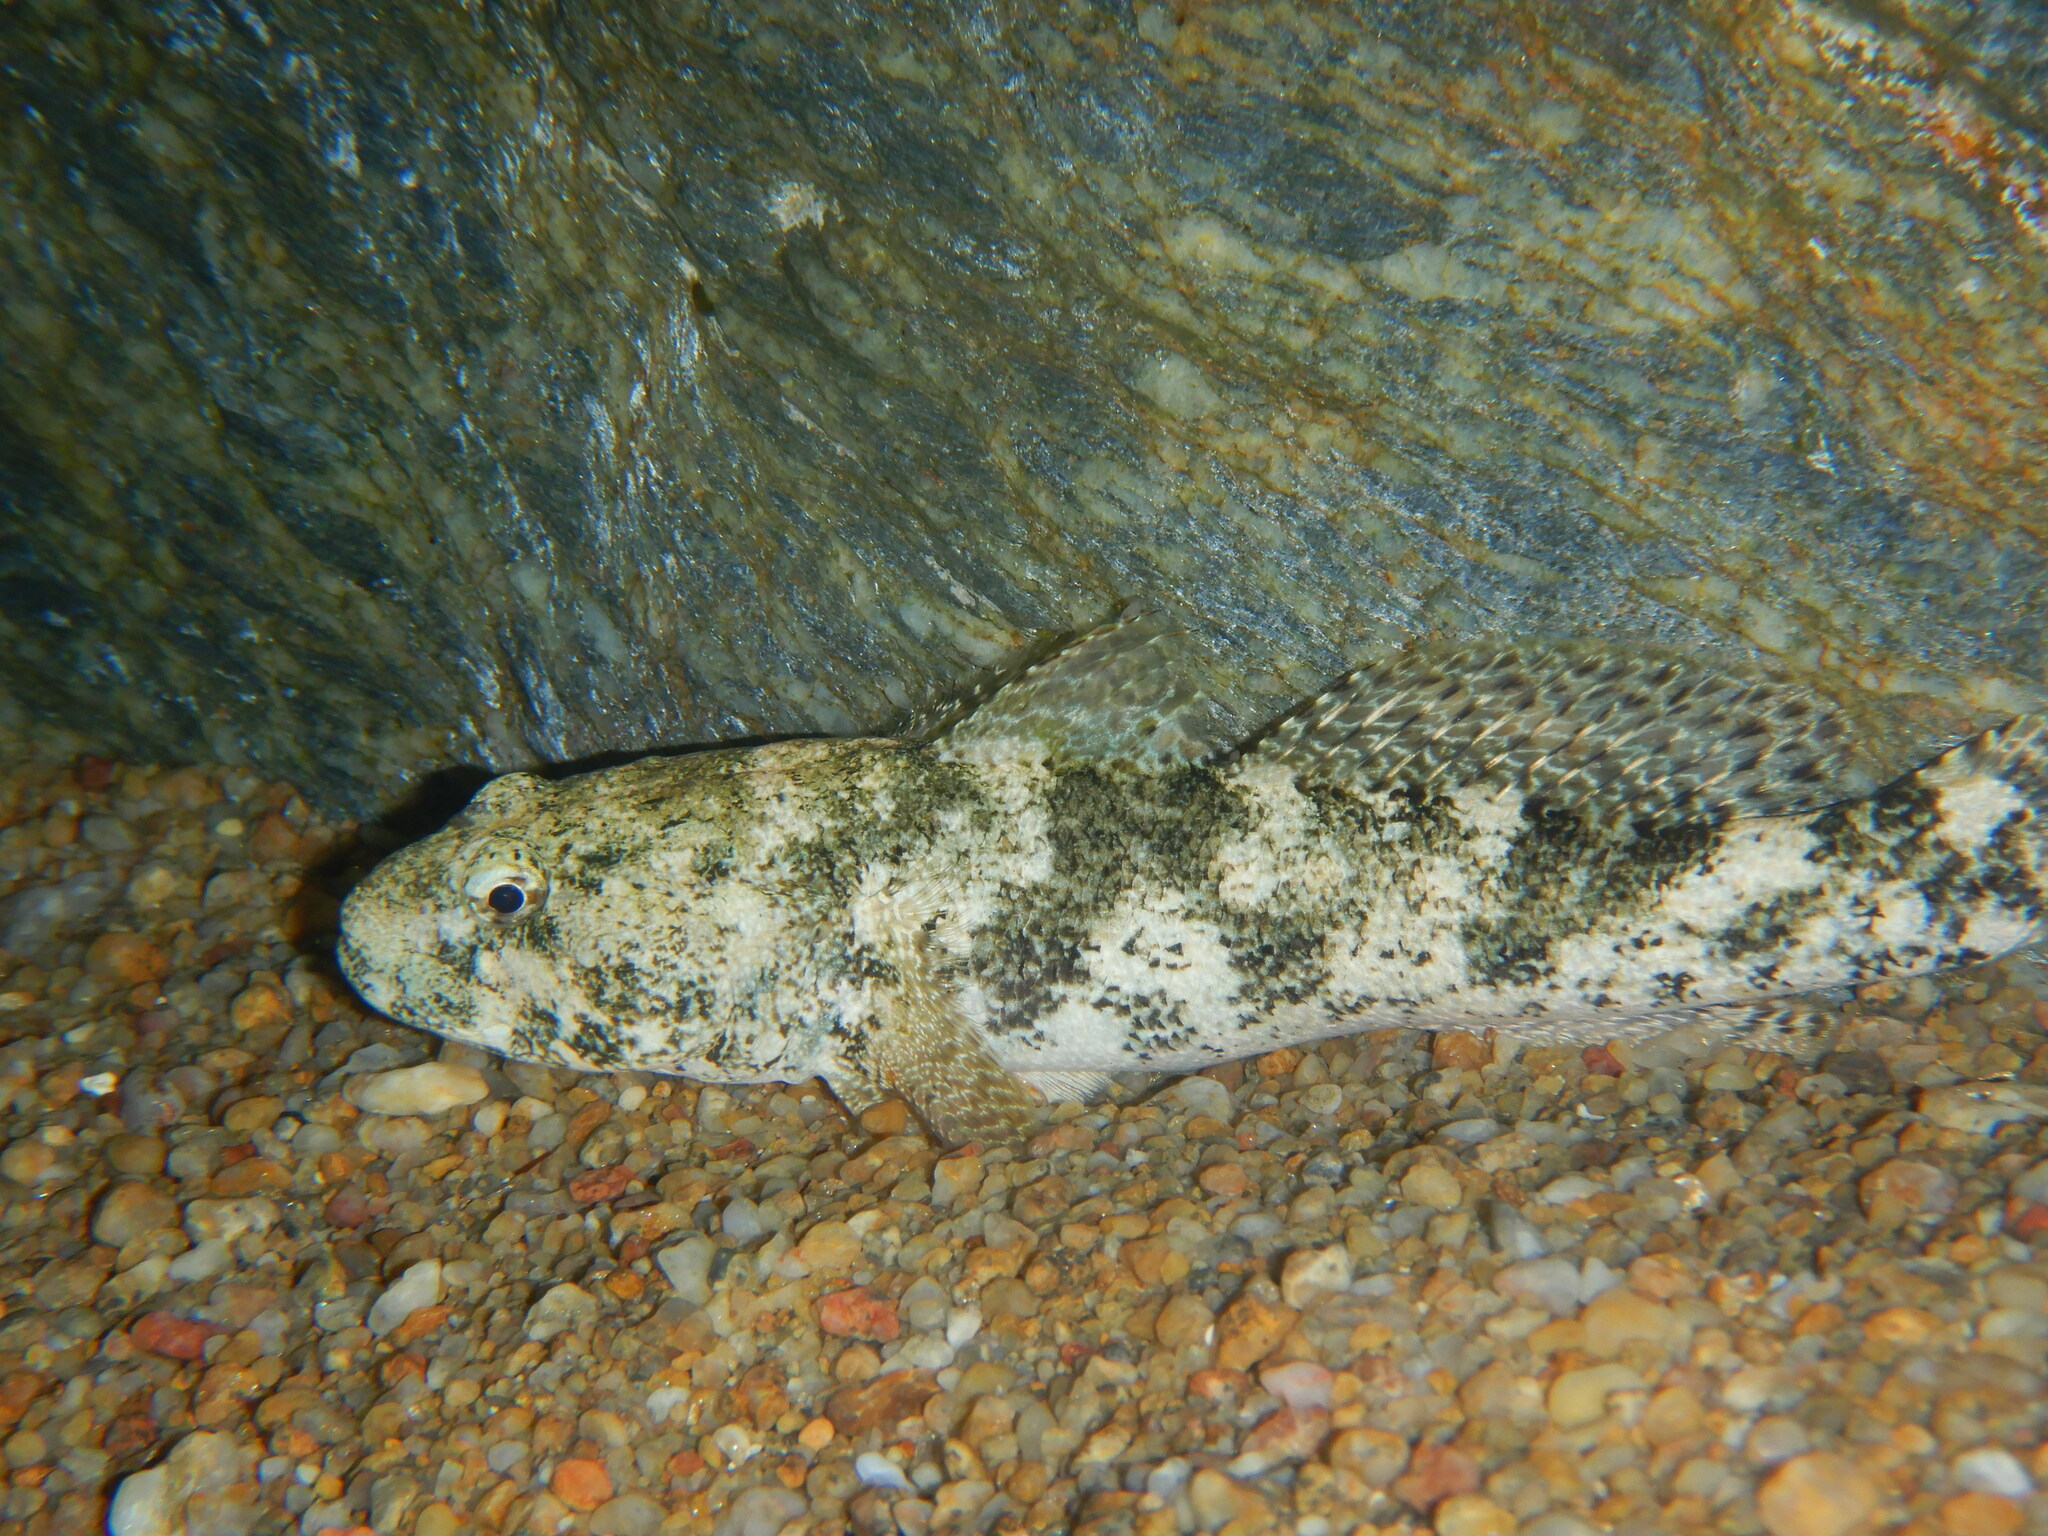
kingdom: Animalia
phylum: Chordata
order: Perciformes
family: Gobiidae
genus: Gobius
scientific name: Gobius cobitis
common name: Giant goby
